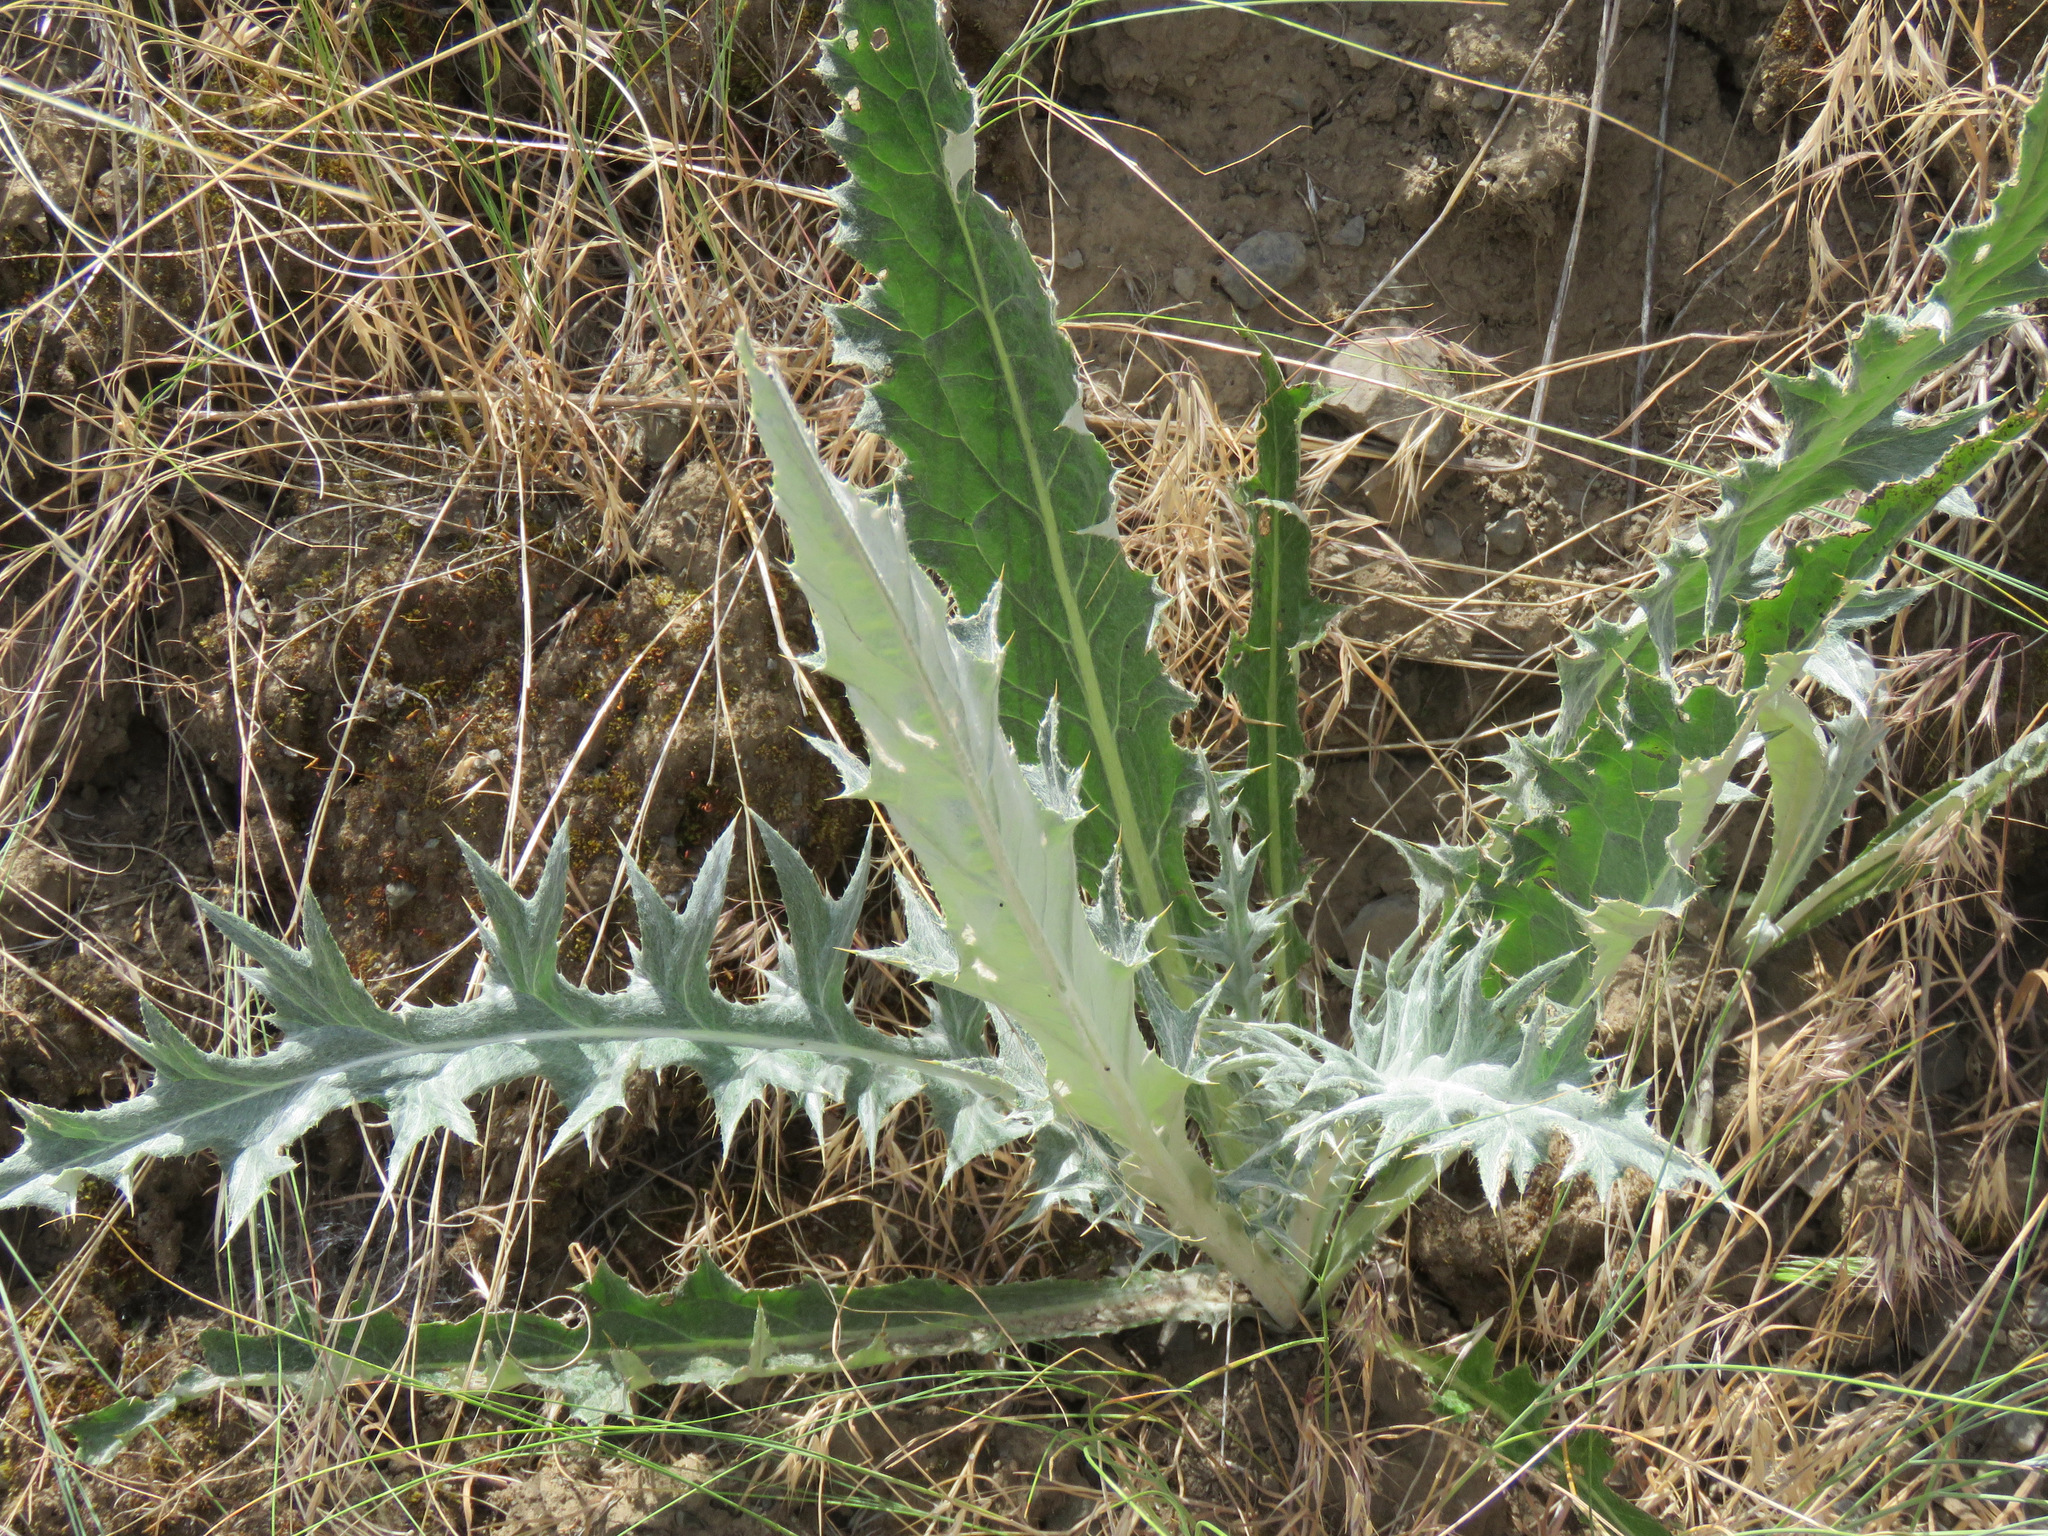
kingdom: Plantae
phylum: Tracheophyta
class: Magnoliopsida
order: Asterales
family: Asteraceae
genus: Cirsium
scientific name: Cirsium undulatum
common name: Pasture thistle
